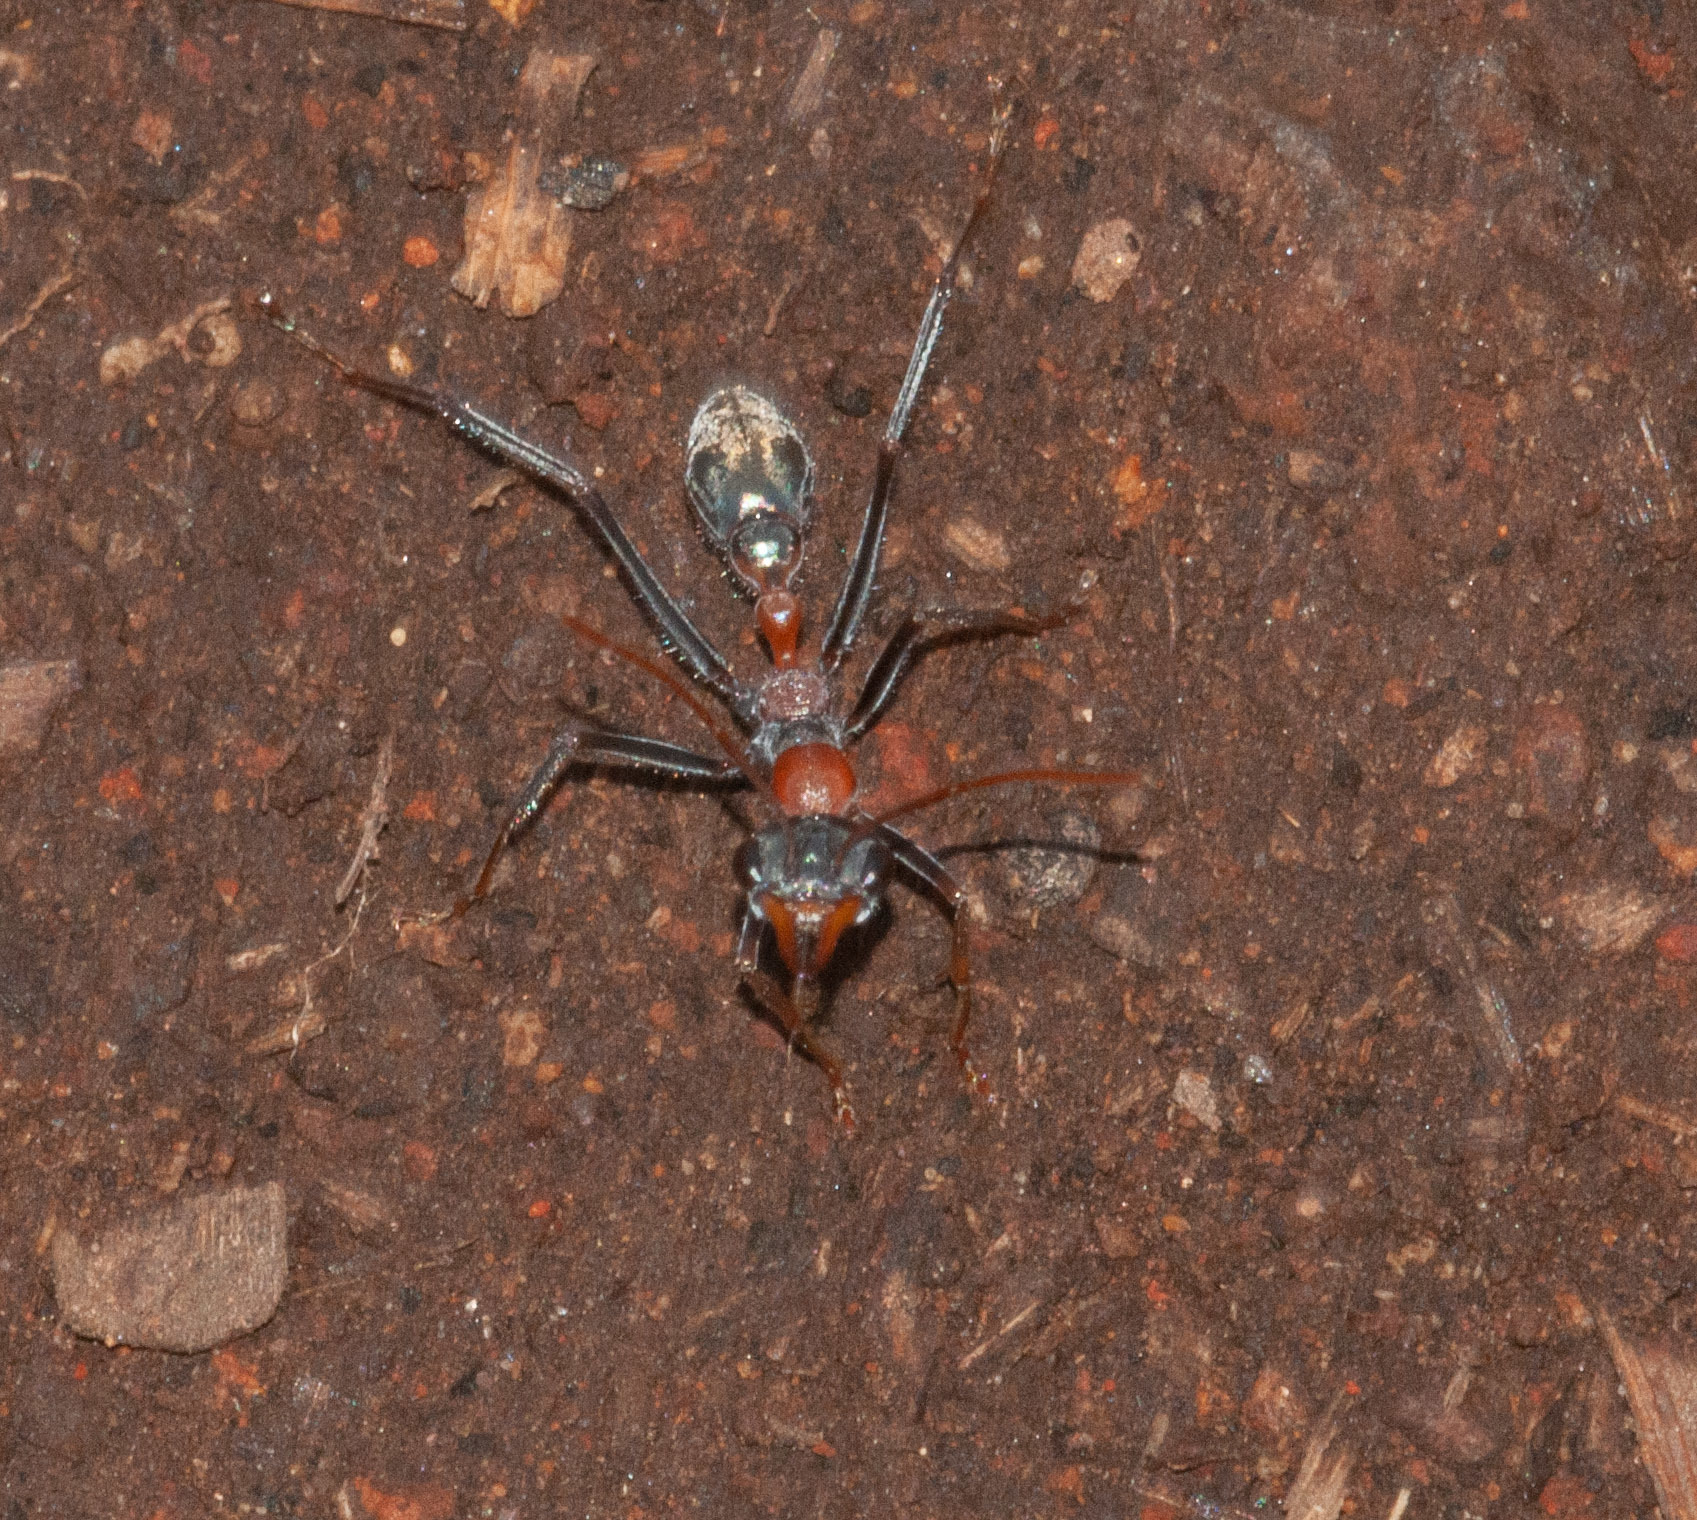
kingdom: Animalia
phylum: Arthropoda
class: Insecta
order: Hymenoptera
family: Formicidae
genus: Myrmecia
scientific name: Myrmecia nigrocincta
